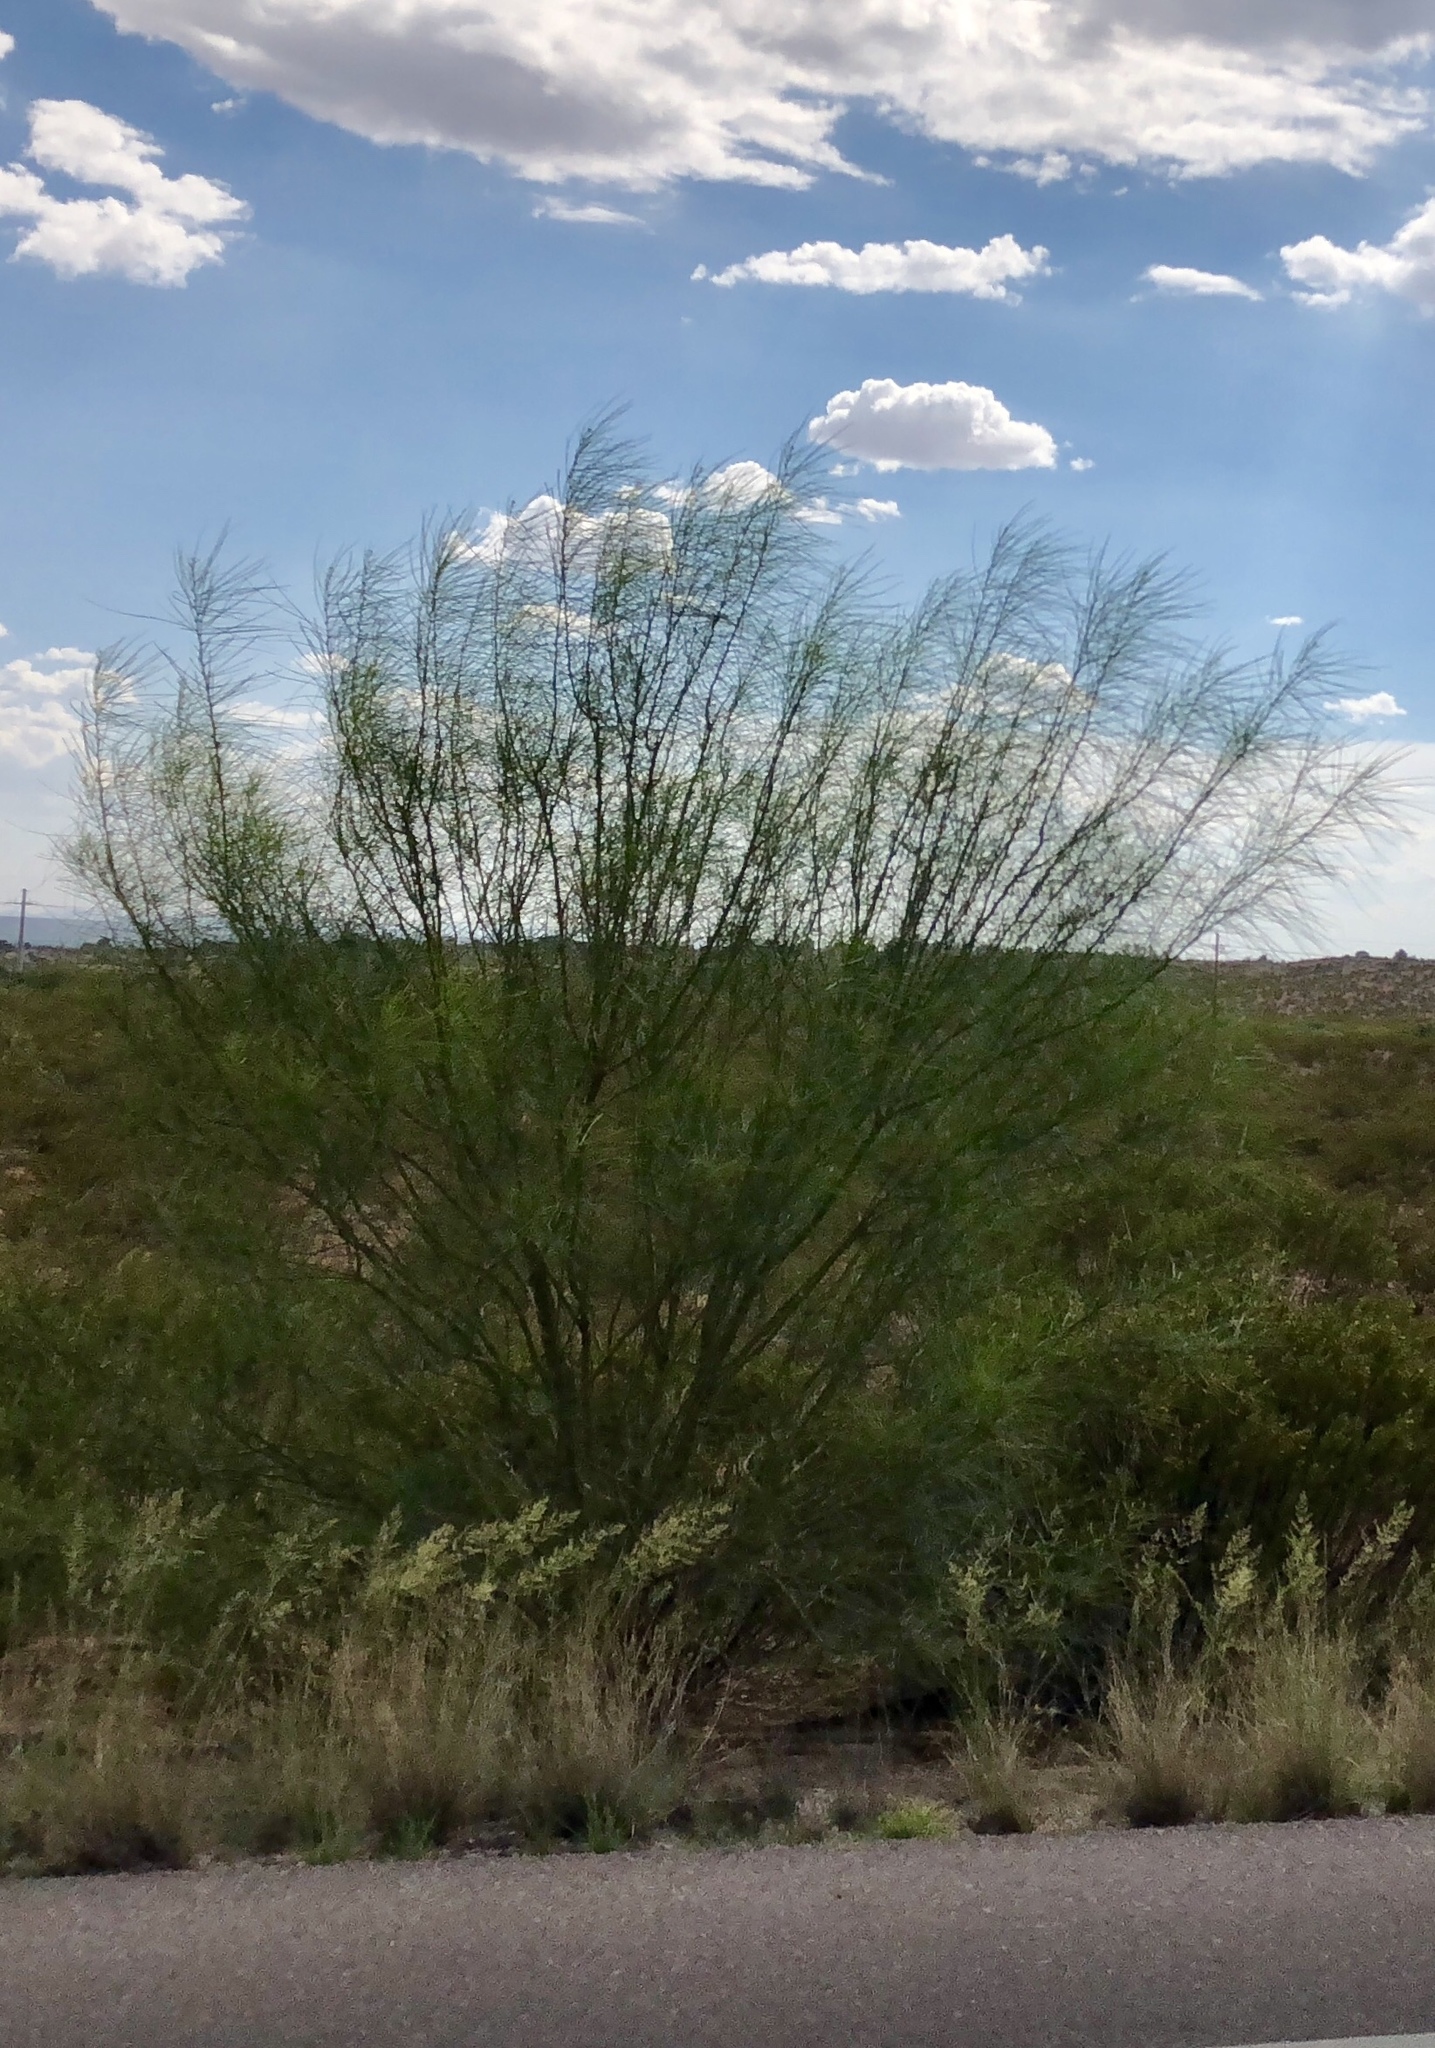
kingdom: Plantae
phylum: Tracheophyta
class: Magnoliopsida
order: Fabales
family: Fabaceae
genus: Parkinsonia
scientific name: Parkinsonia aculeata
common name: Jerusalem thorn
